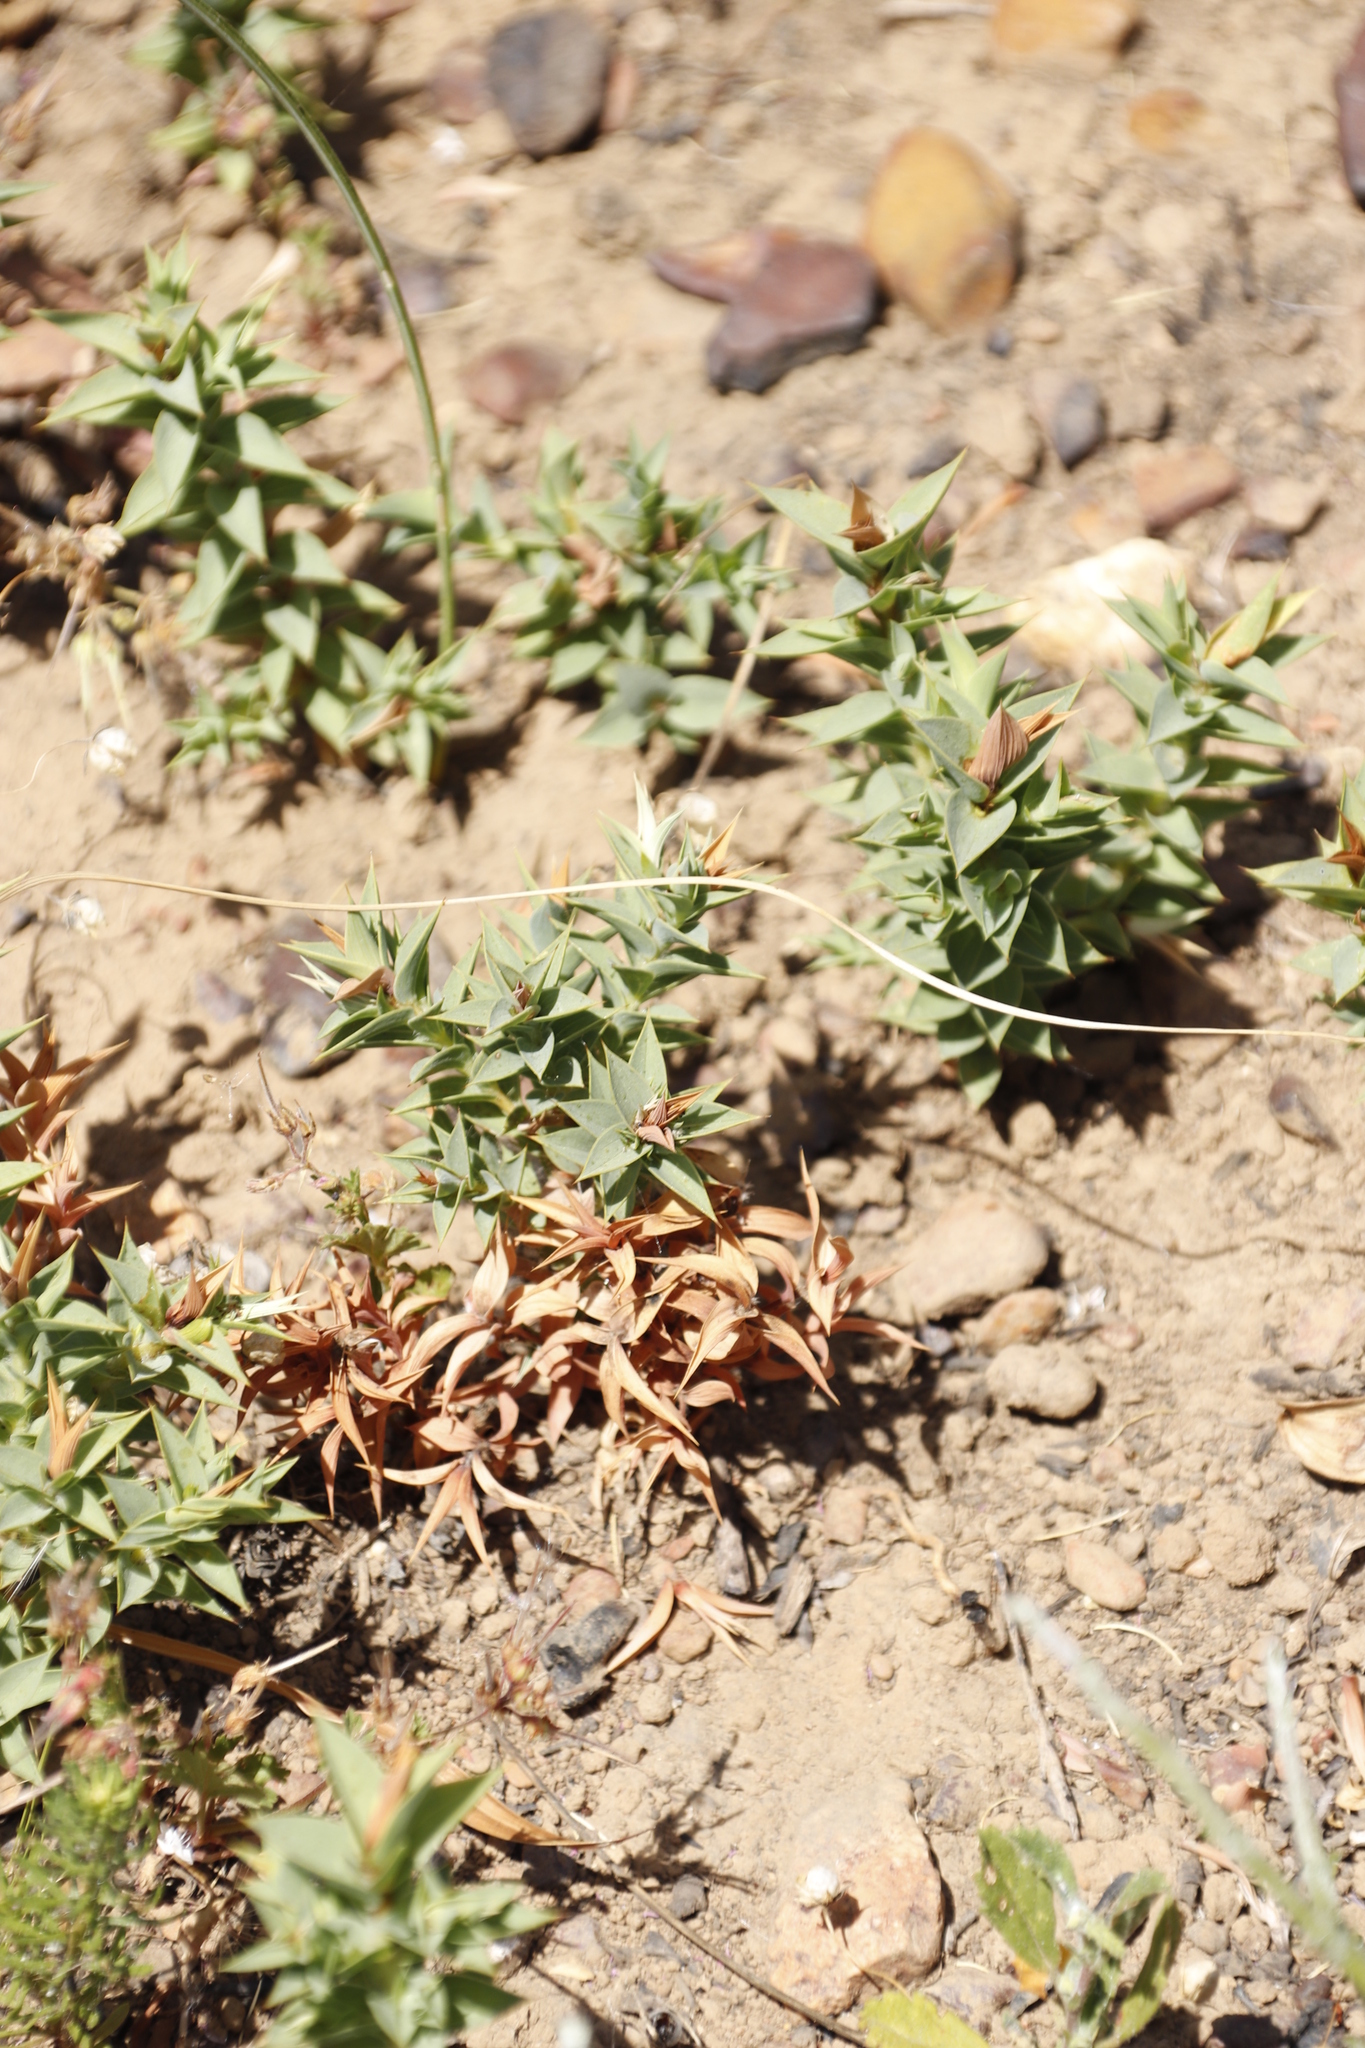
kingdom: Plantae
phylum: Tracheophyta
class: Magnoliopsida
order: Fabales
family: Fabaceae
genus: Aspalathus
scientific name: Aspalathus cordata
